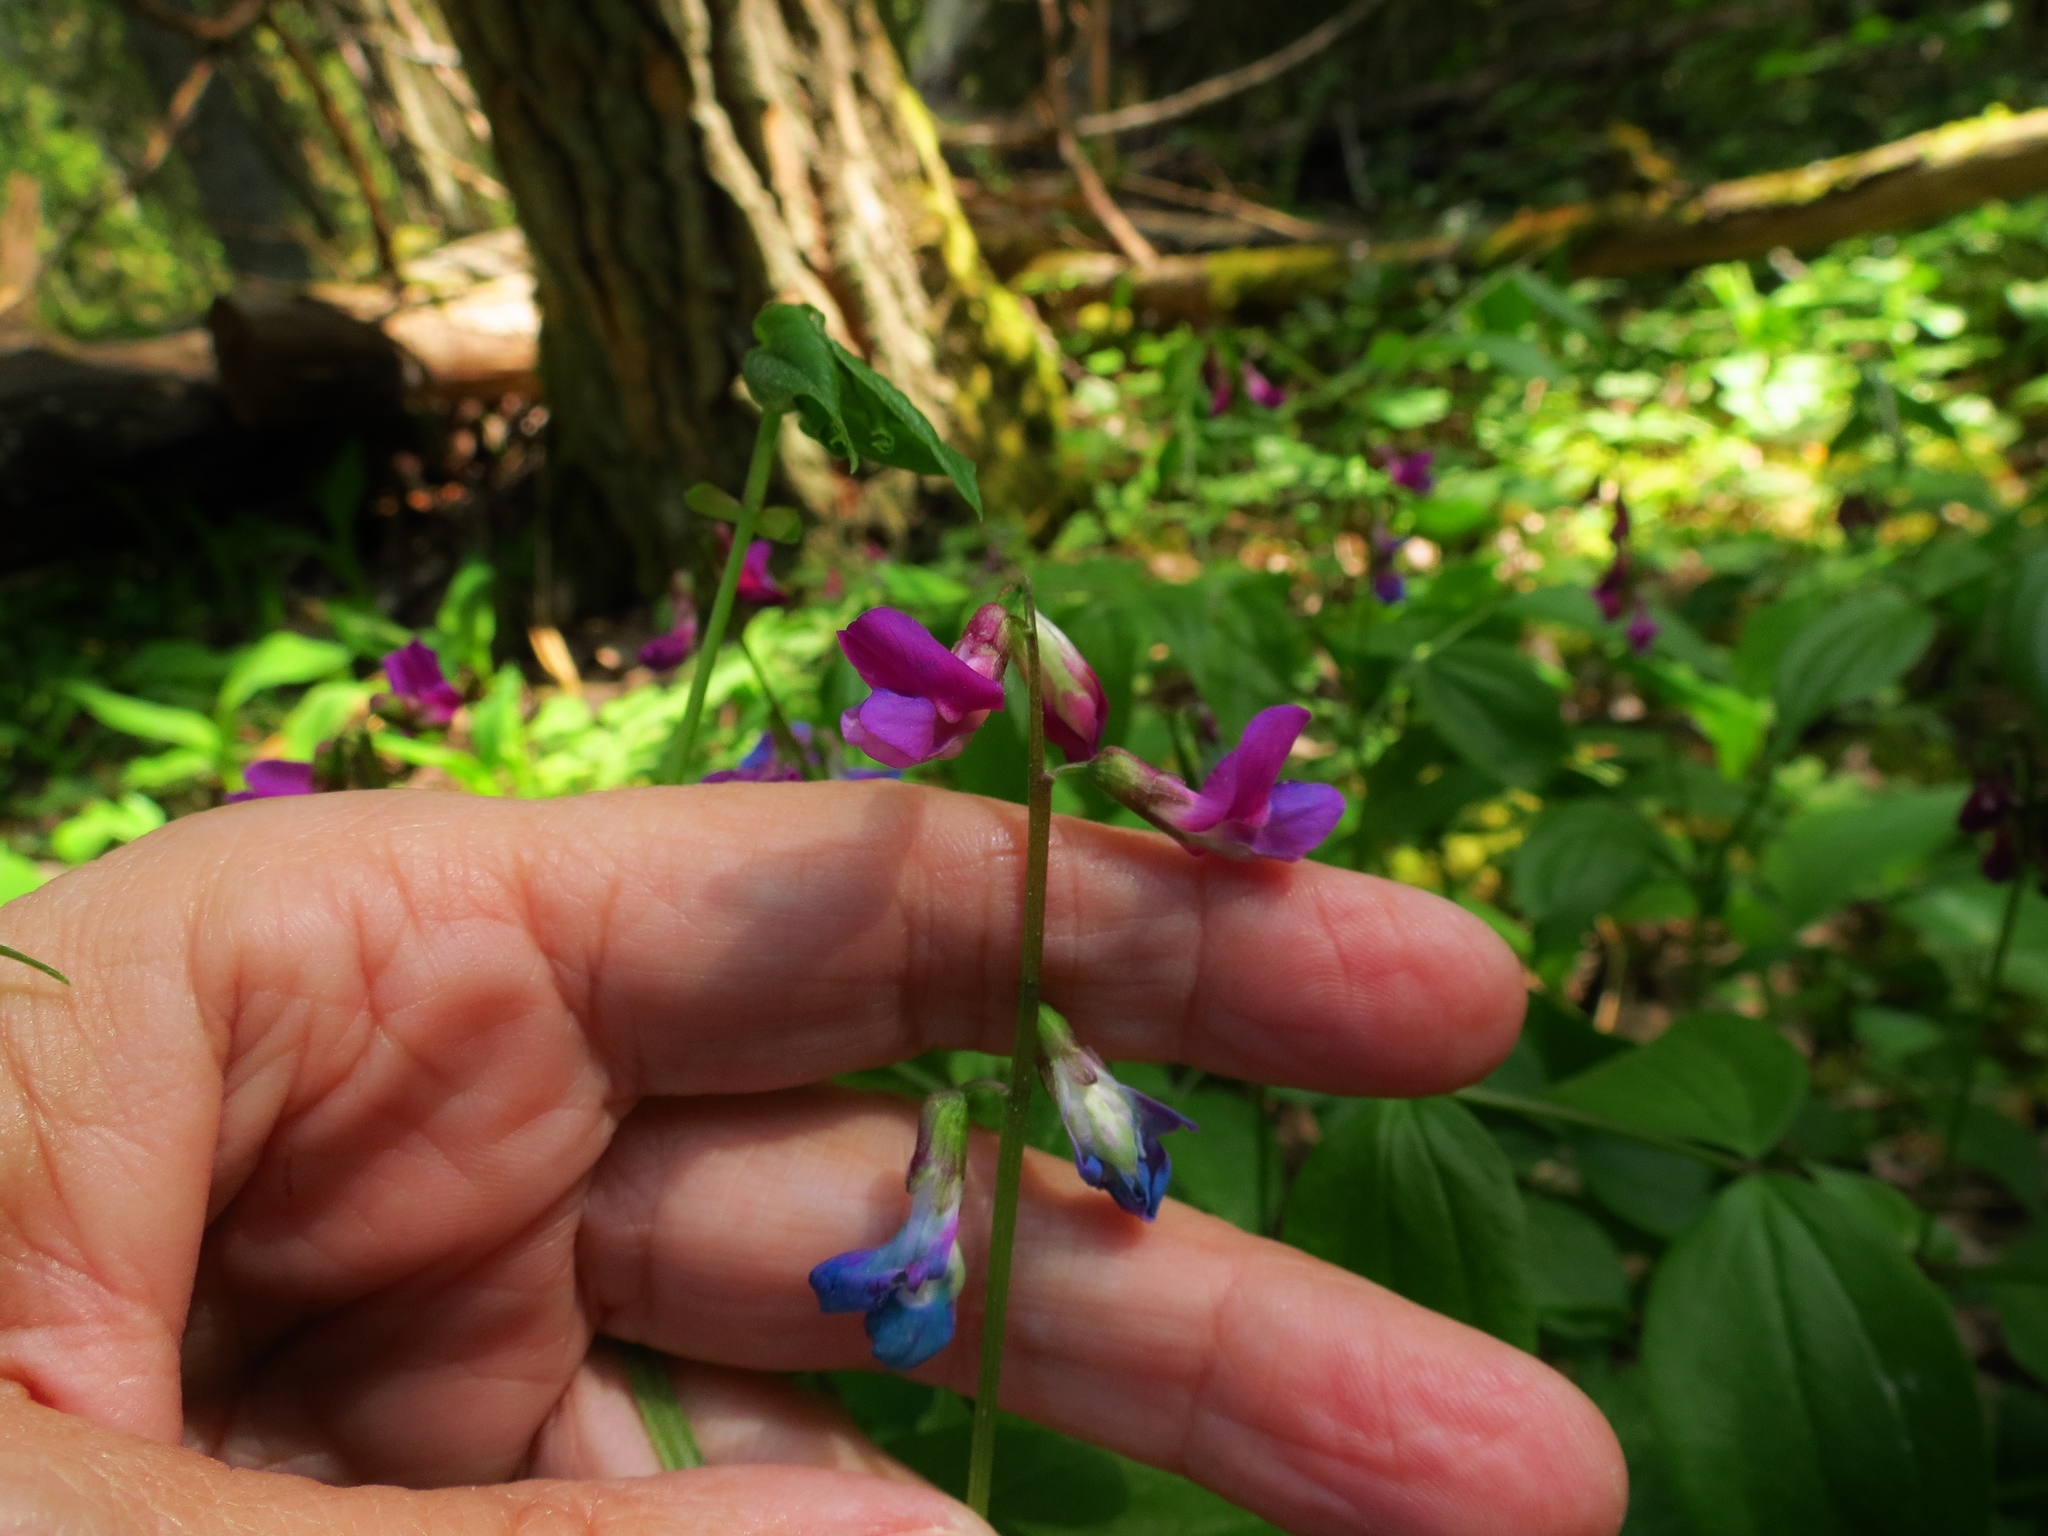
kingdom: Plantae
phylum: Tracheophyta
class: Magnoliopsida
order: Fabales
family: Fabaceae
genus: Lathyrus
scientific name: Lathyrus vernus
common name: Spring pea
